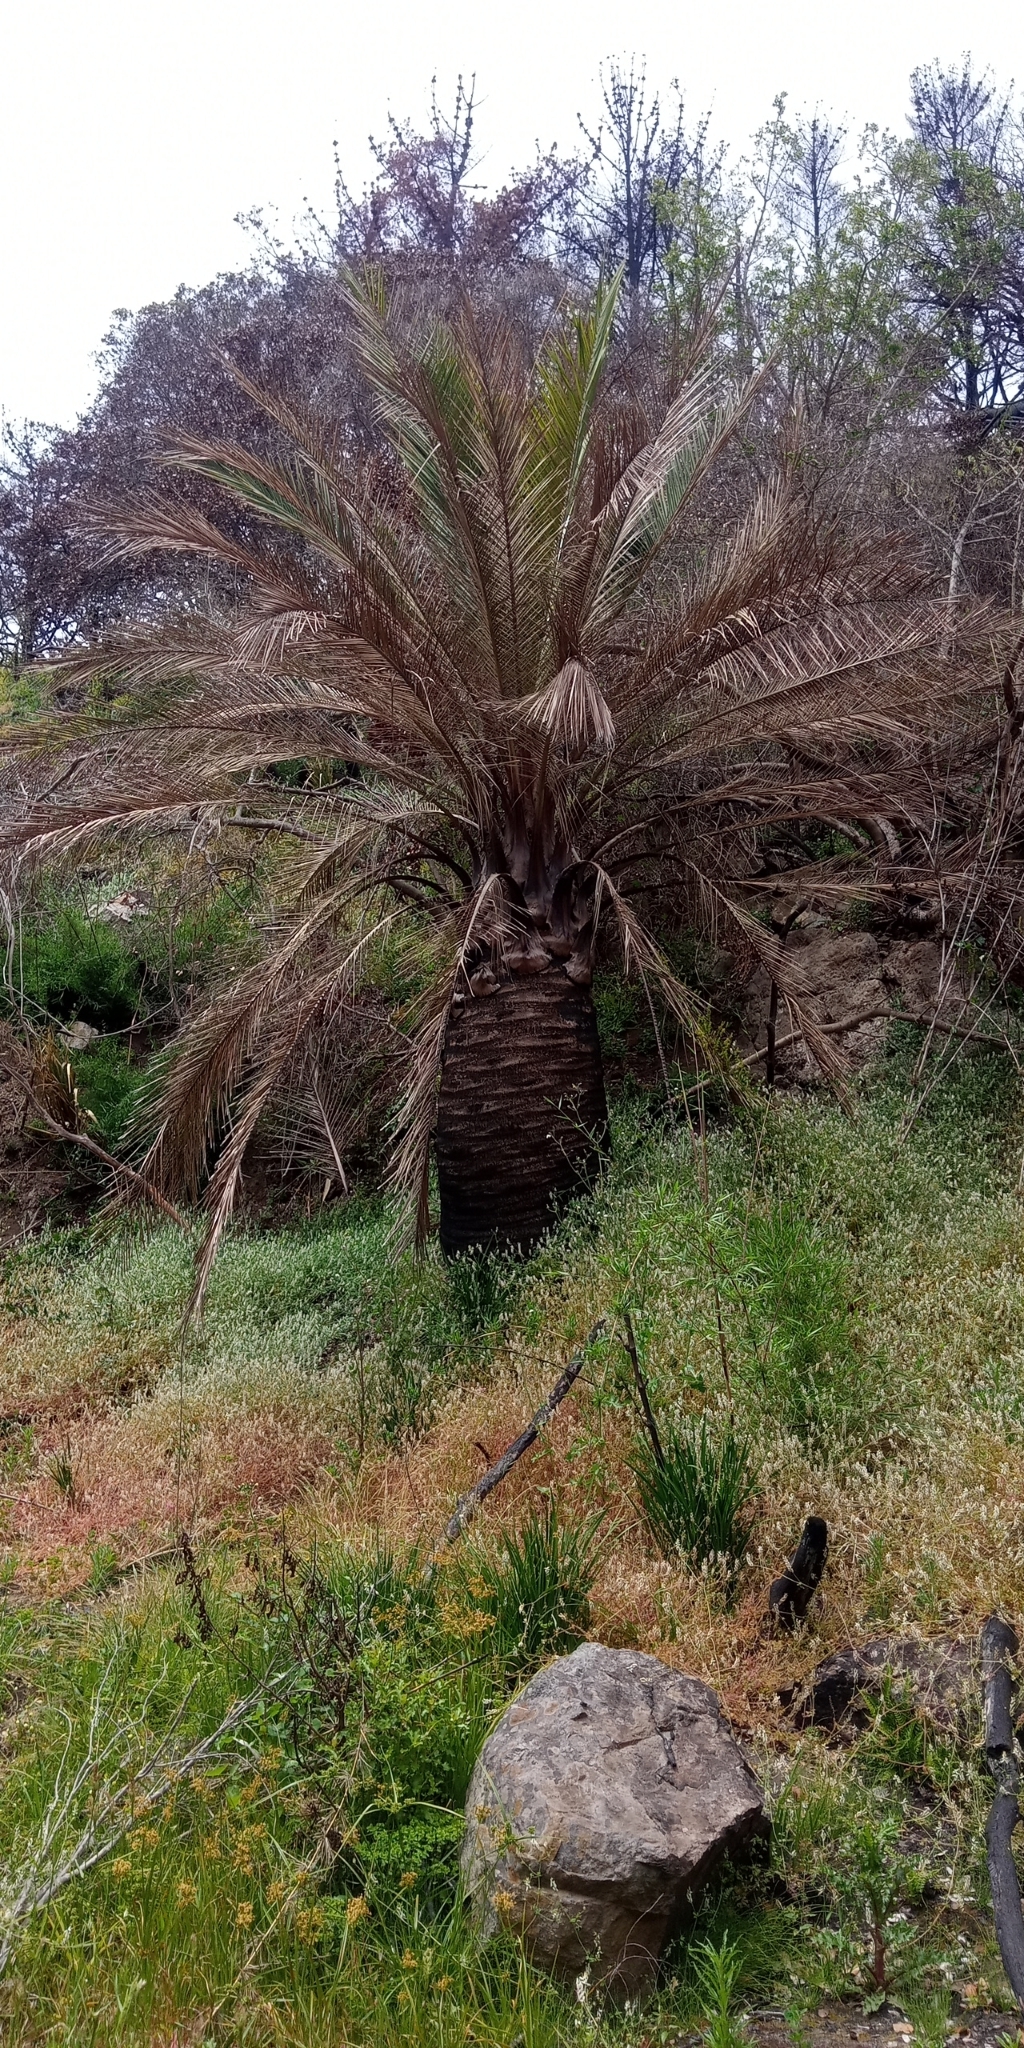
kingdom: Plantae
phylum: Tracheophyta
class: Liliopsida
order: Arecales
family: Arecaceae
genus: Jubaea
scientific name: Jubaea chilensis
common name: Coquito palm
